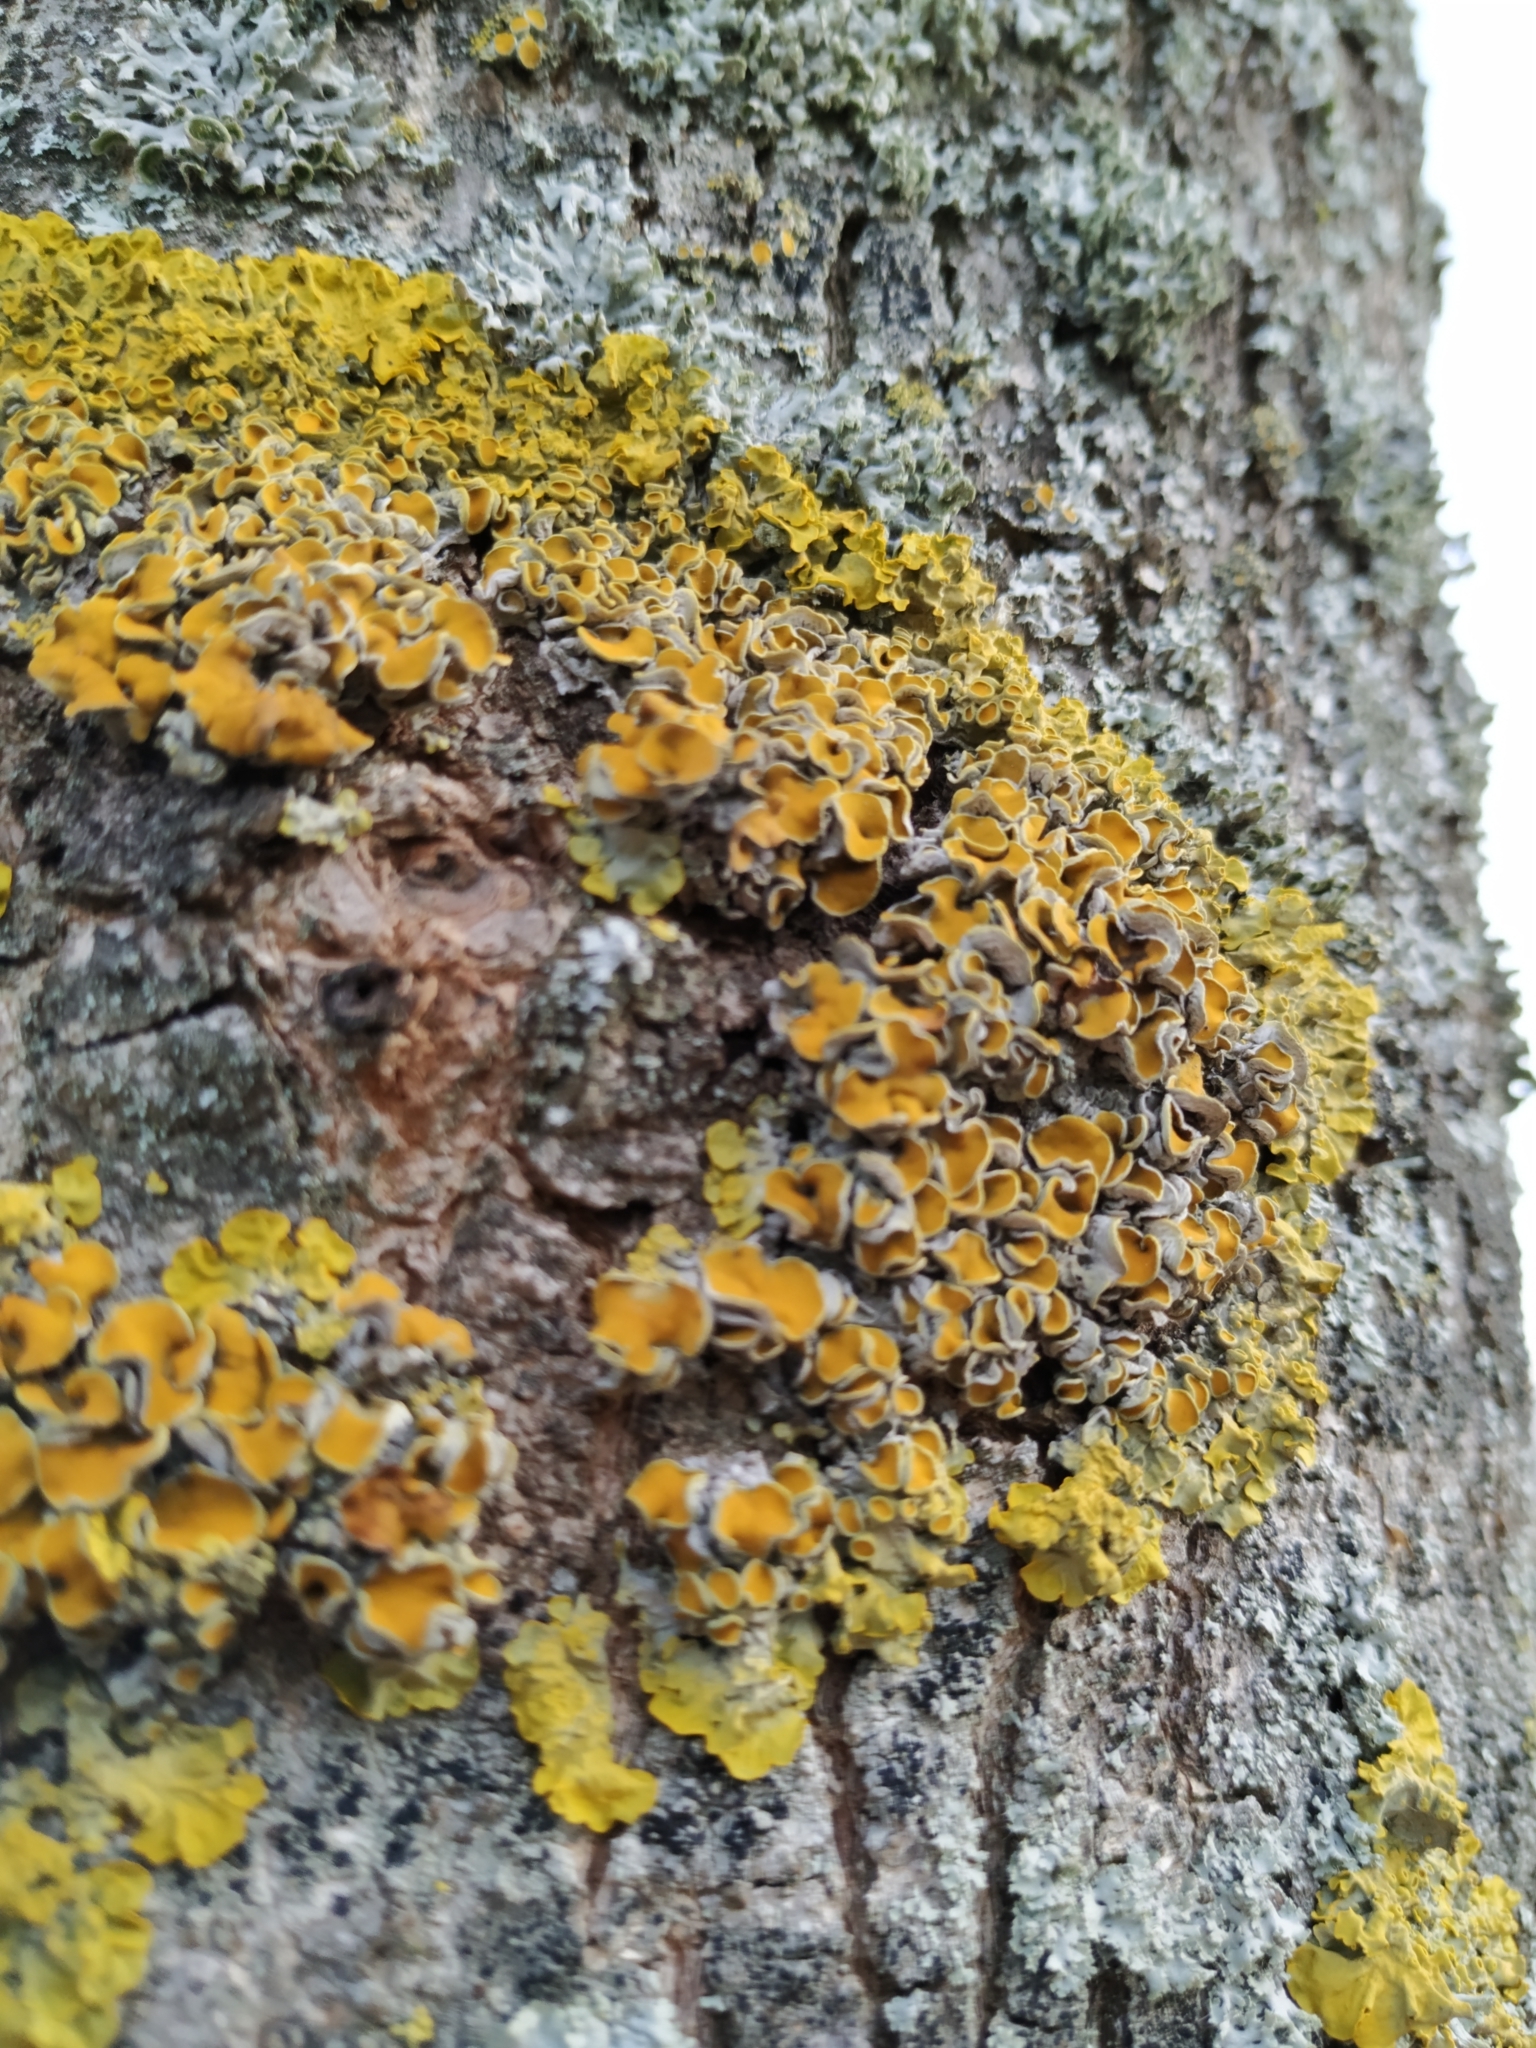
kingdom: Fungi
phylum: Ascomycota
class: Lecanoromycetes
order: Teloschistales
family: Teloschistaceae
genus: Xanthoria
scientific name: Xanthoria parietina
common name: Common orange lichen
